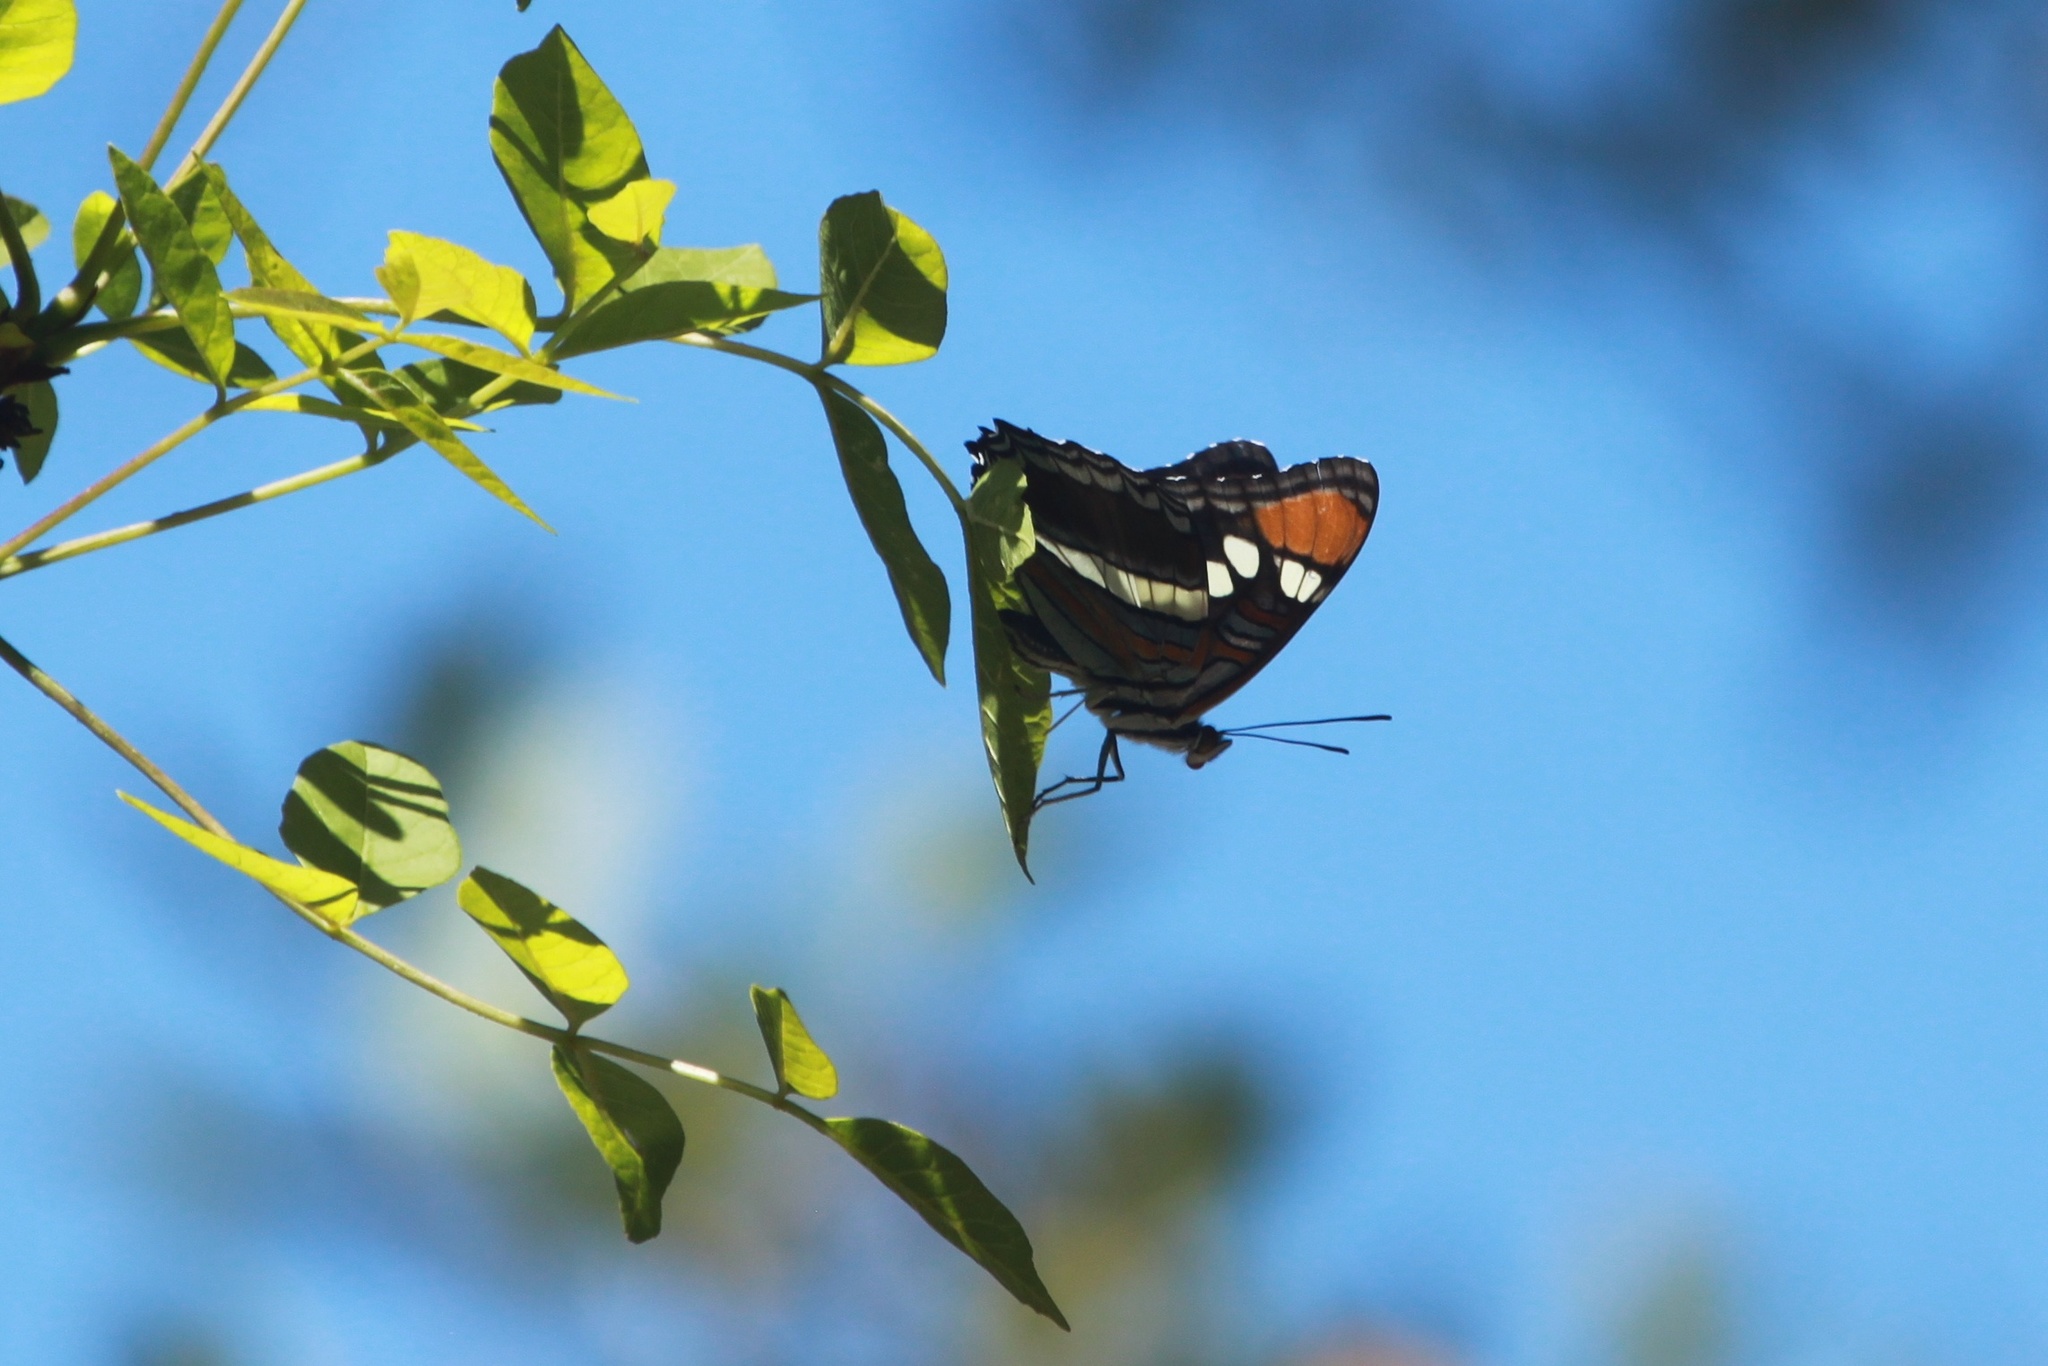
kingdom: Animalia
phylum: Arthropoda
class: Insecta
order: Lepidoptera
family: Nymphalidae
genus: Limenitis
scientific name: Limenitis bredowii
